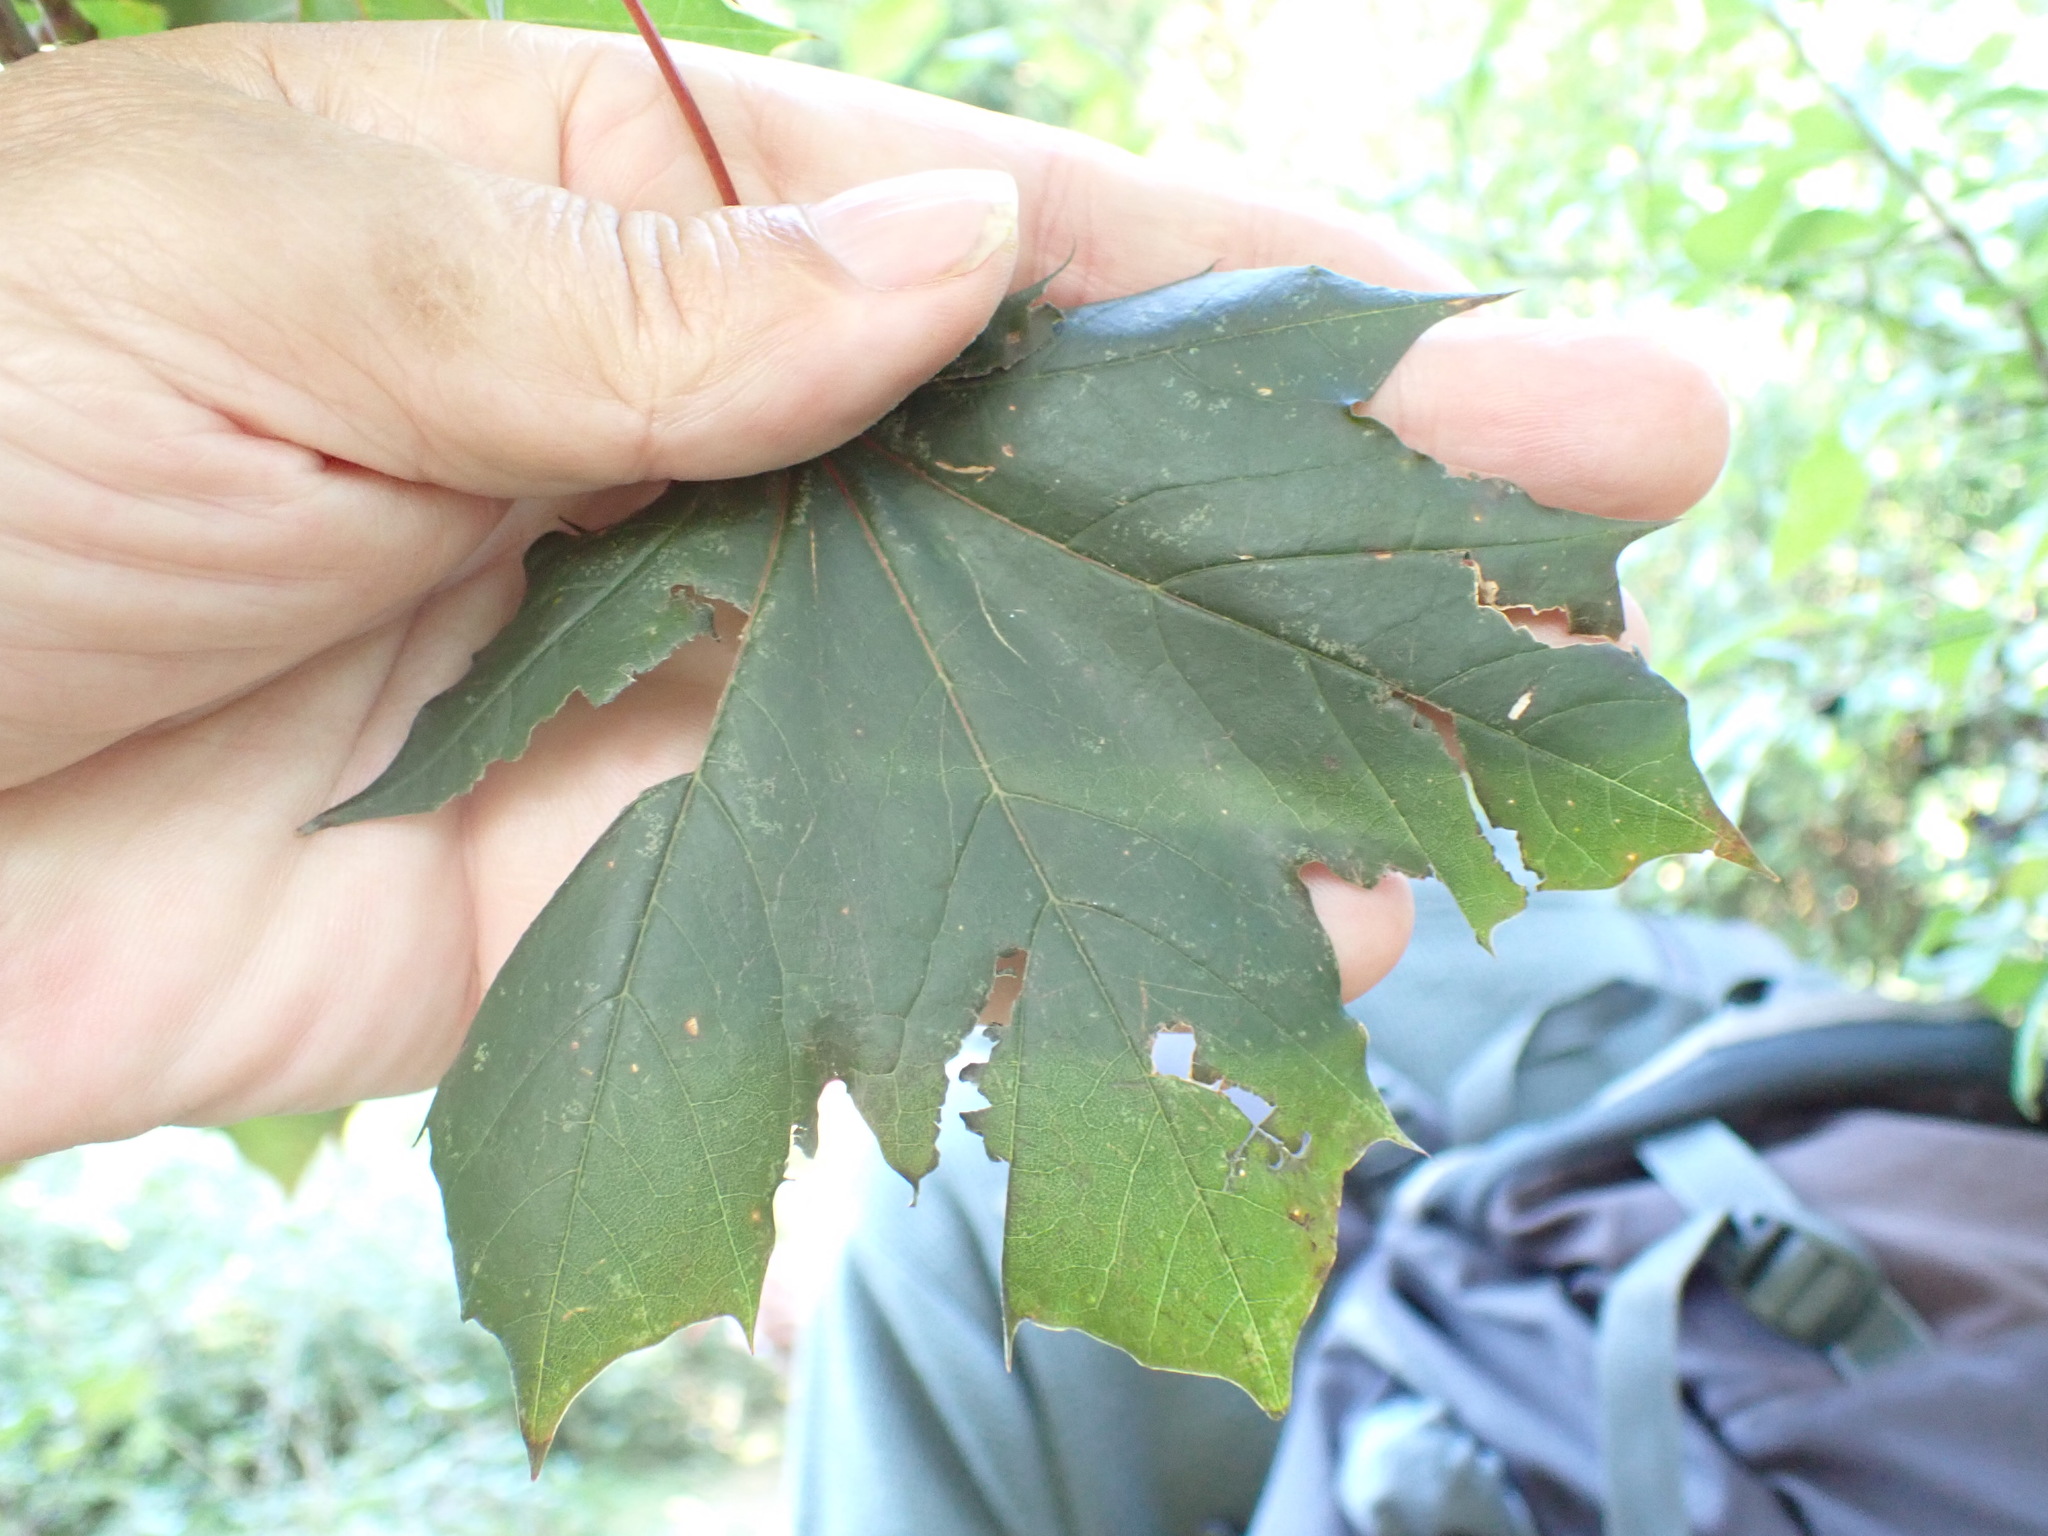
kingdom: Plantae
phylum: Tracheophyta
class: Magnoliopsida
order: Sapindales
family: Sapindaceae
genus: Acer
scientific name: Acer platanoides
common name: Norway maple
